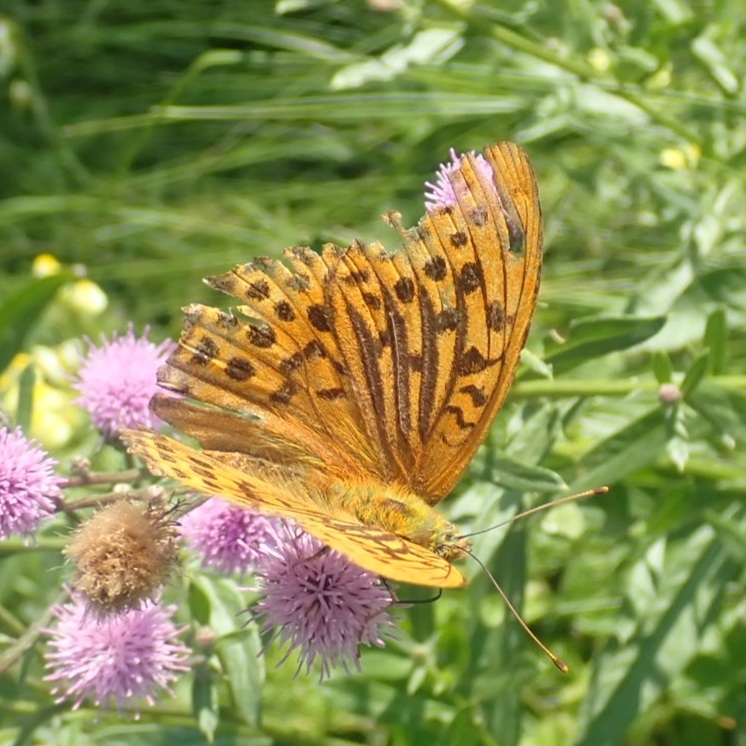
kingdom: Animalia
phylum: Arthropoda
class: Insecta
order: Lepidoptera
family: Nymphalidae
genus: Argynnis
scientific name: Argynnis paphia
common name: Silver-washed fritillary
